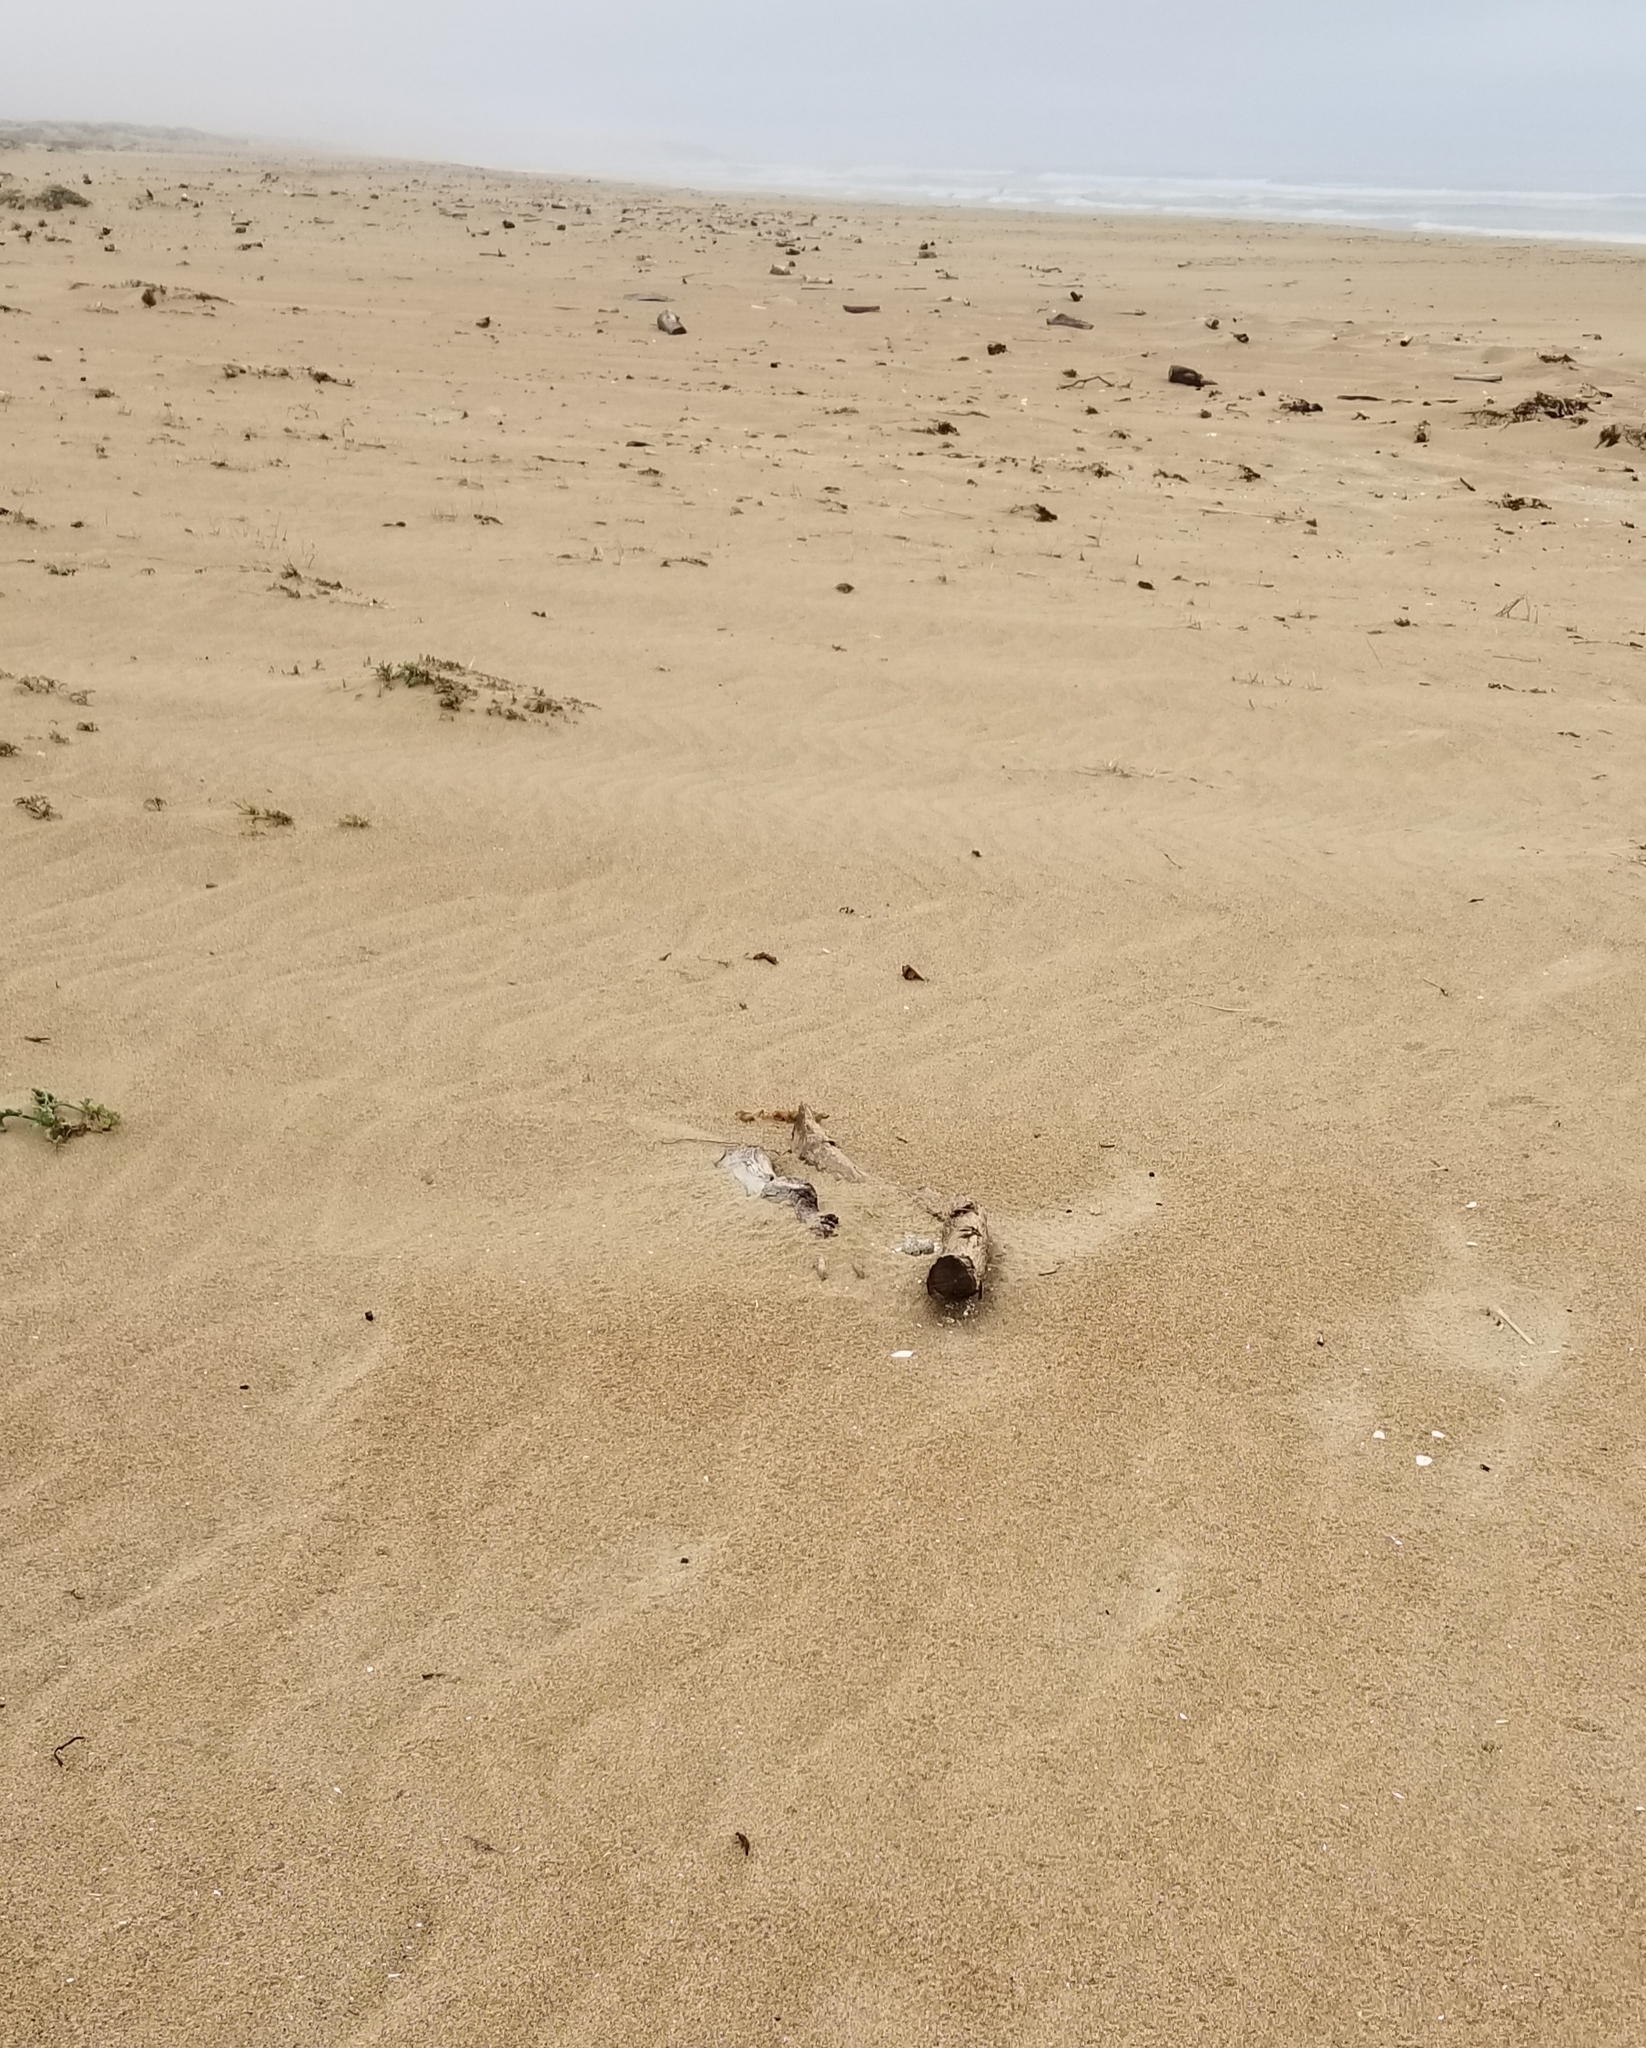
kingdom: Animalia
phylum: Chordata
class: Aves
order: Charadriiformes
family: Charadriidae
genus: Anarhynchus
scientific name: Anarhynchus
